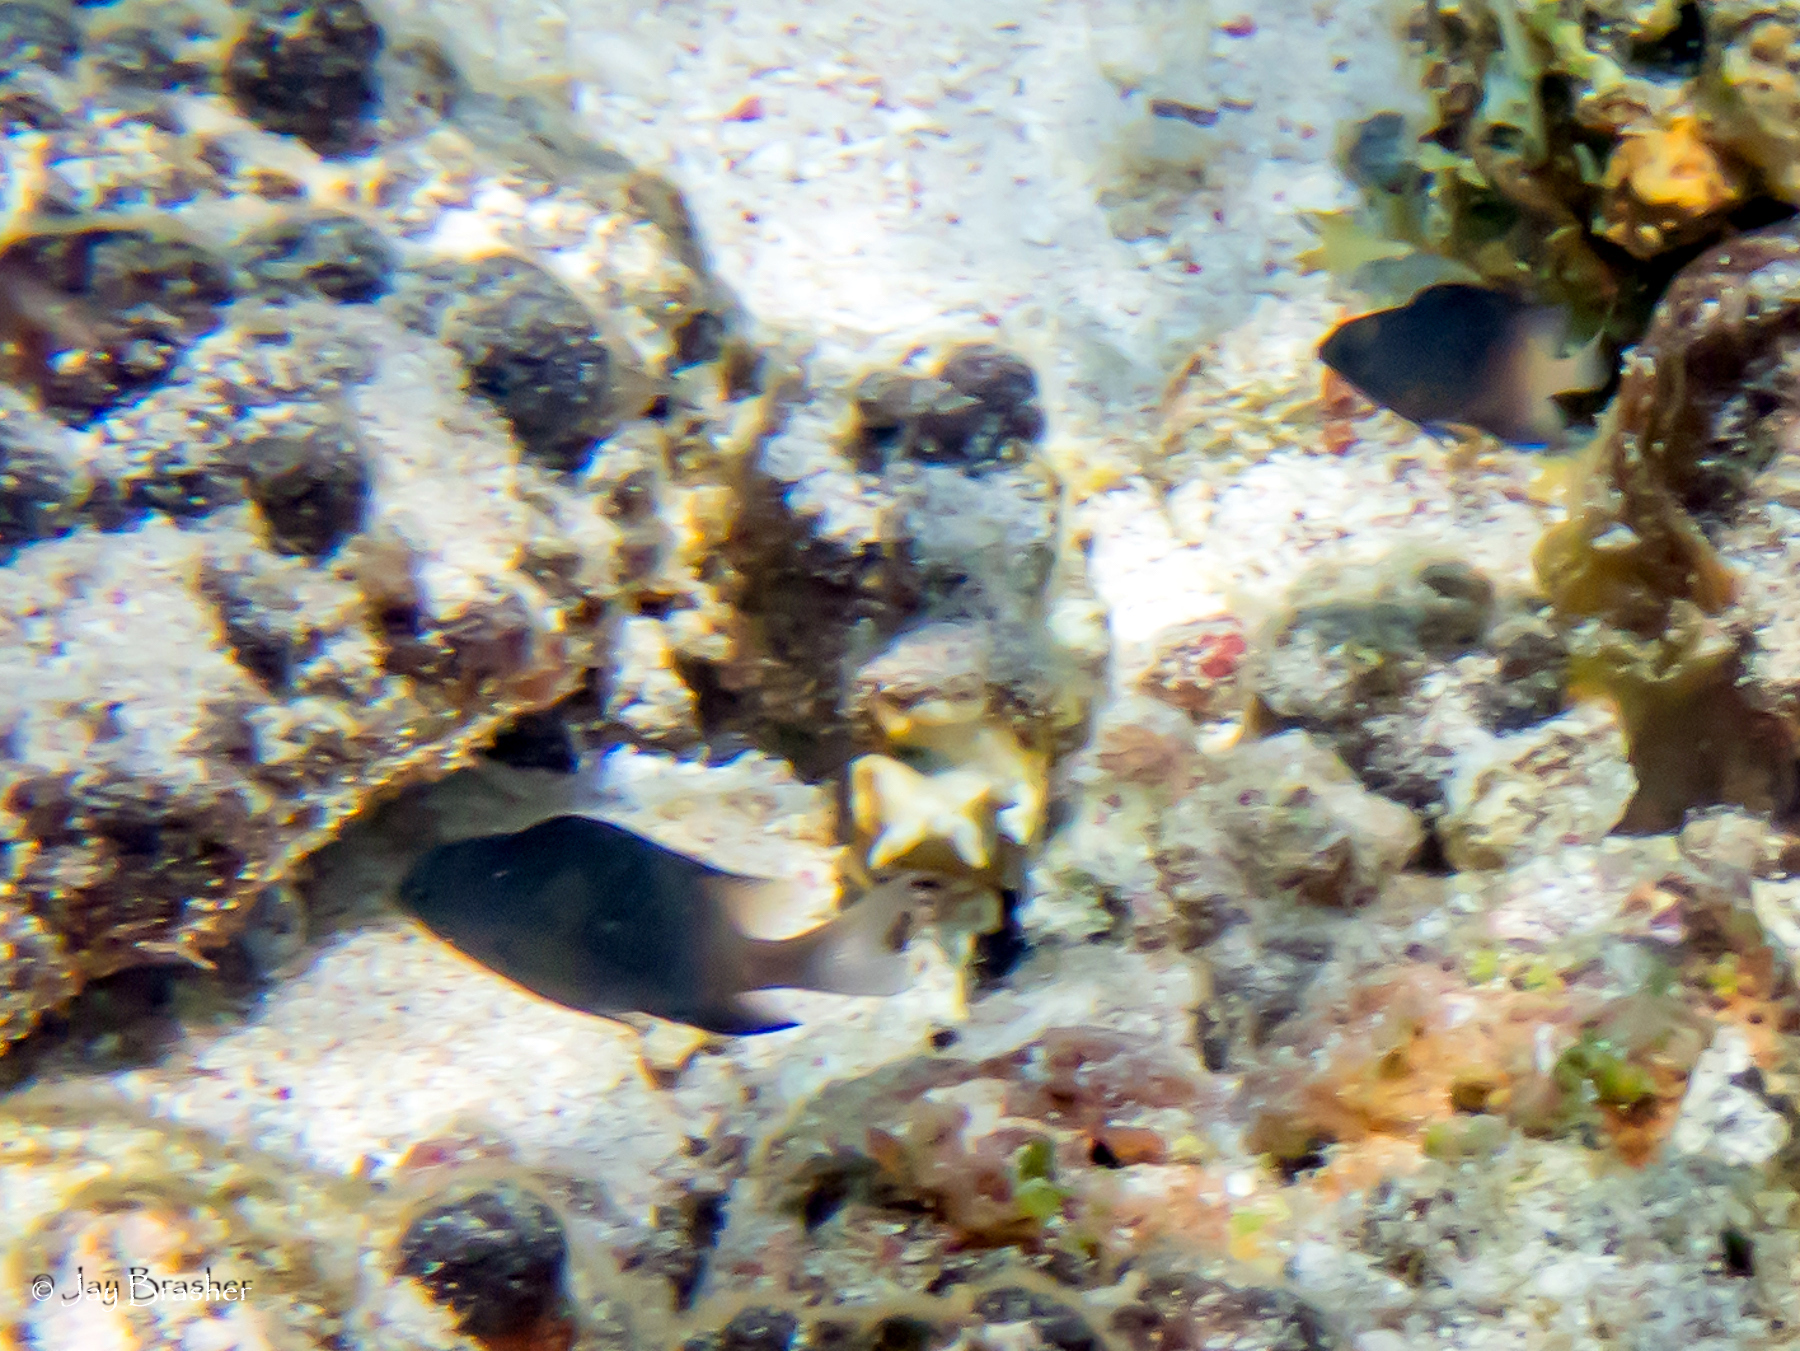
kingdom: Animalia
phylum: Chordata
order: Perciformes
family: Pomacentridae
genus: Stegastes
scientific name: Stegastes partitus
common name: Bicolor damselfish
